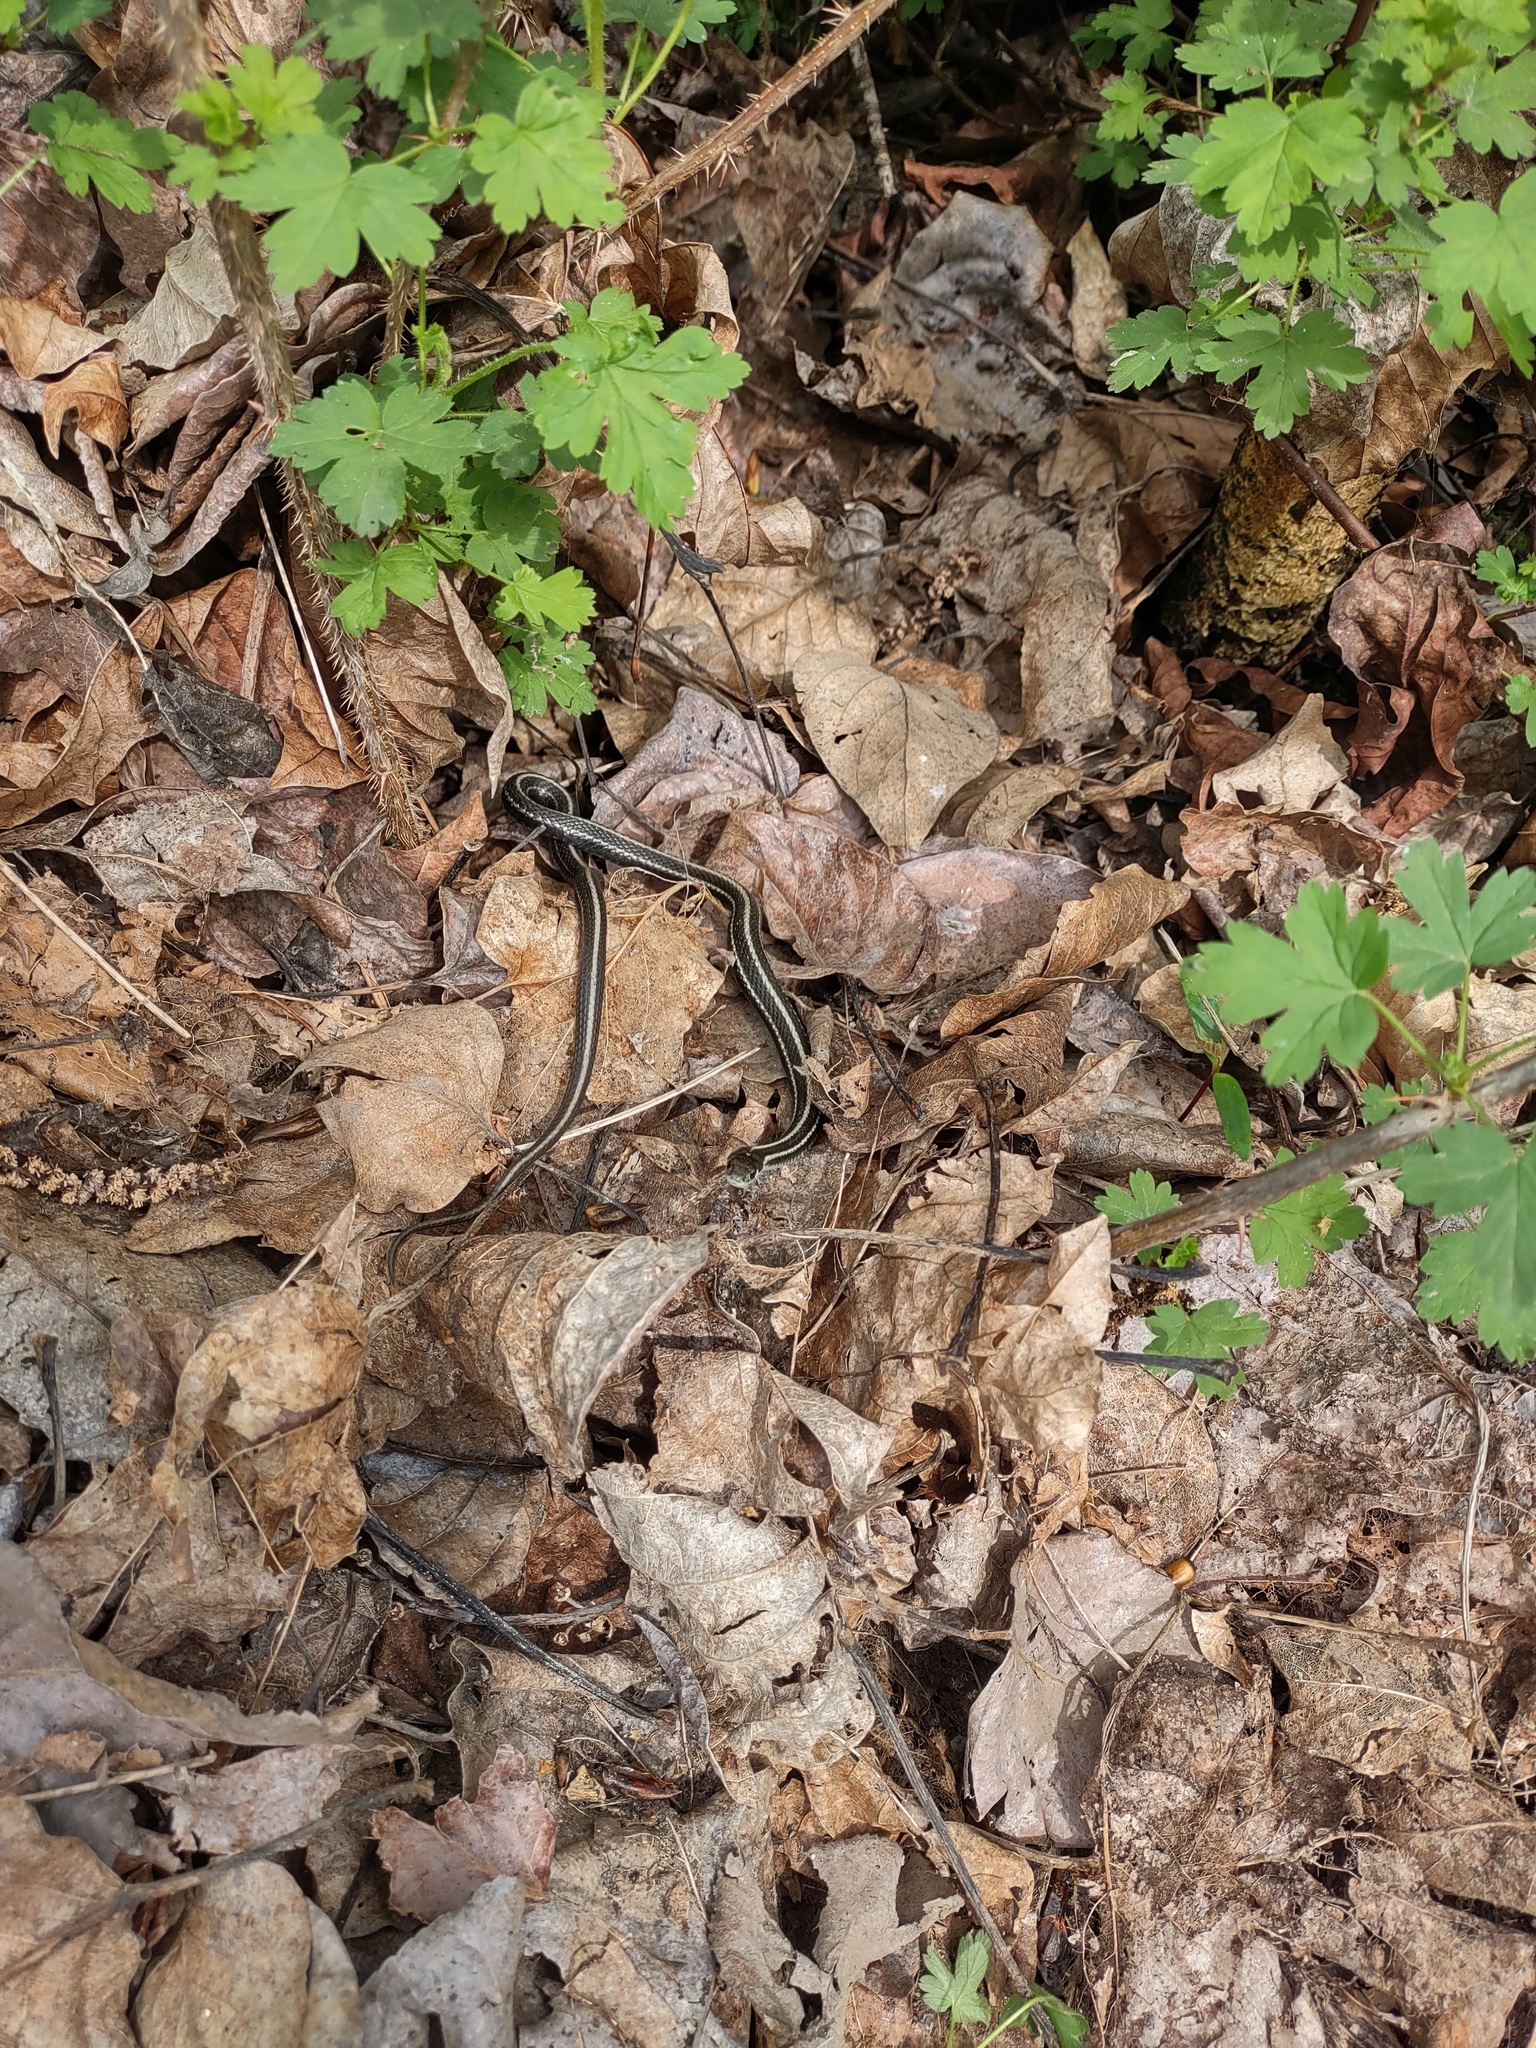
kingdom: Animalia
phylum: Chordata
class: Squamata
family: Colubridae
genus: Thamnophis
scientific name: Thamnophis ordinoides
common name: Northwestern garter snake
